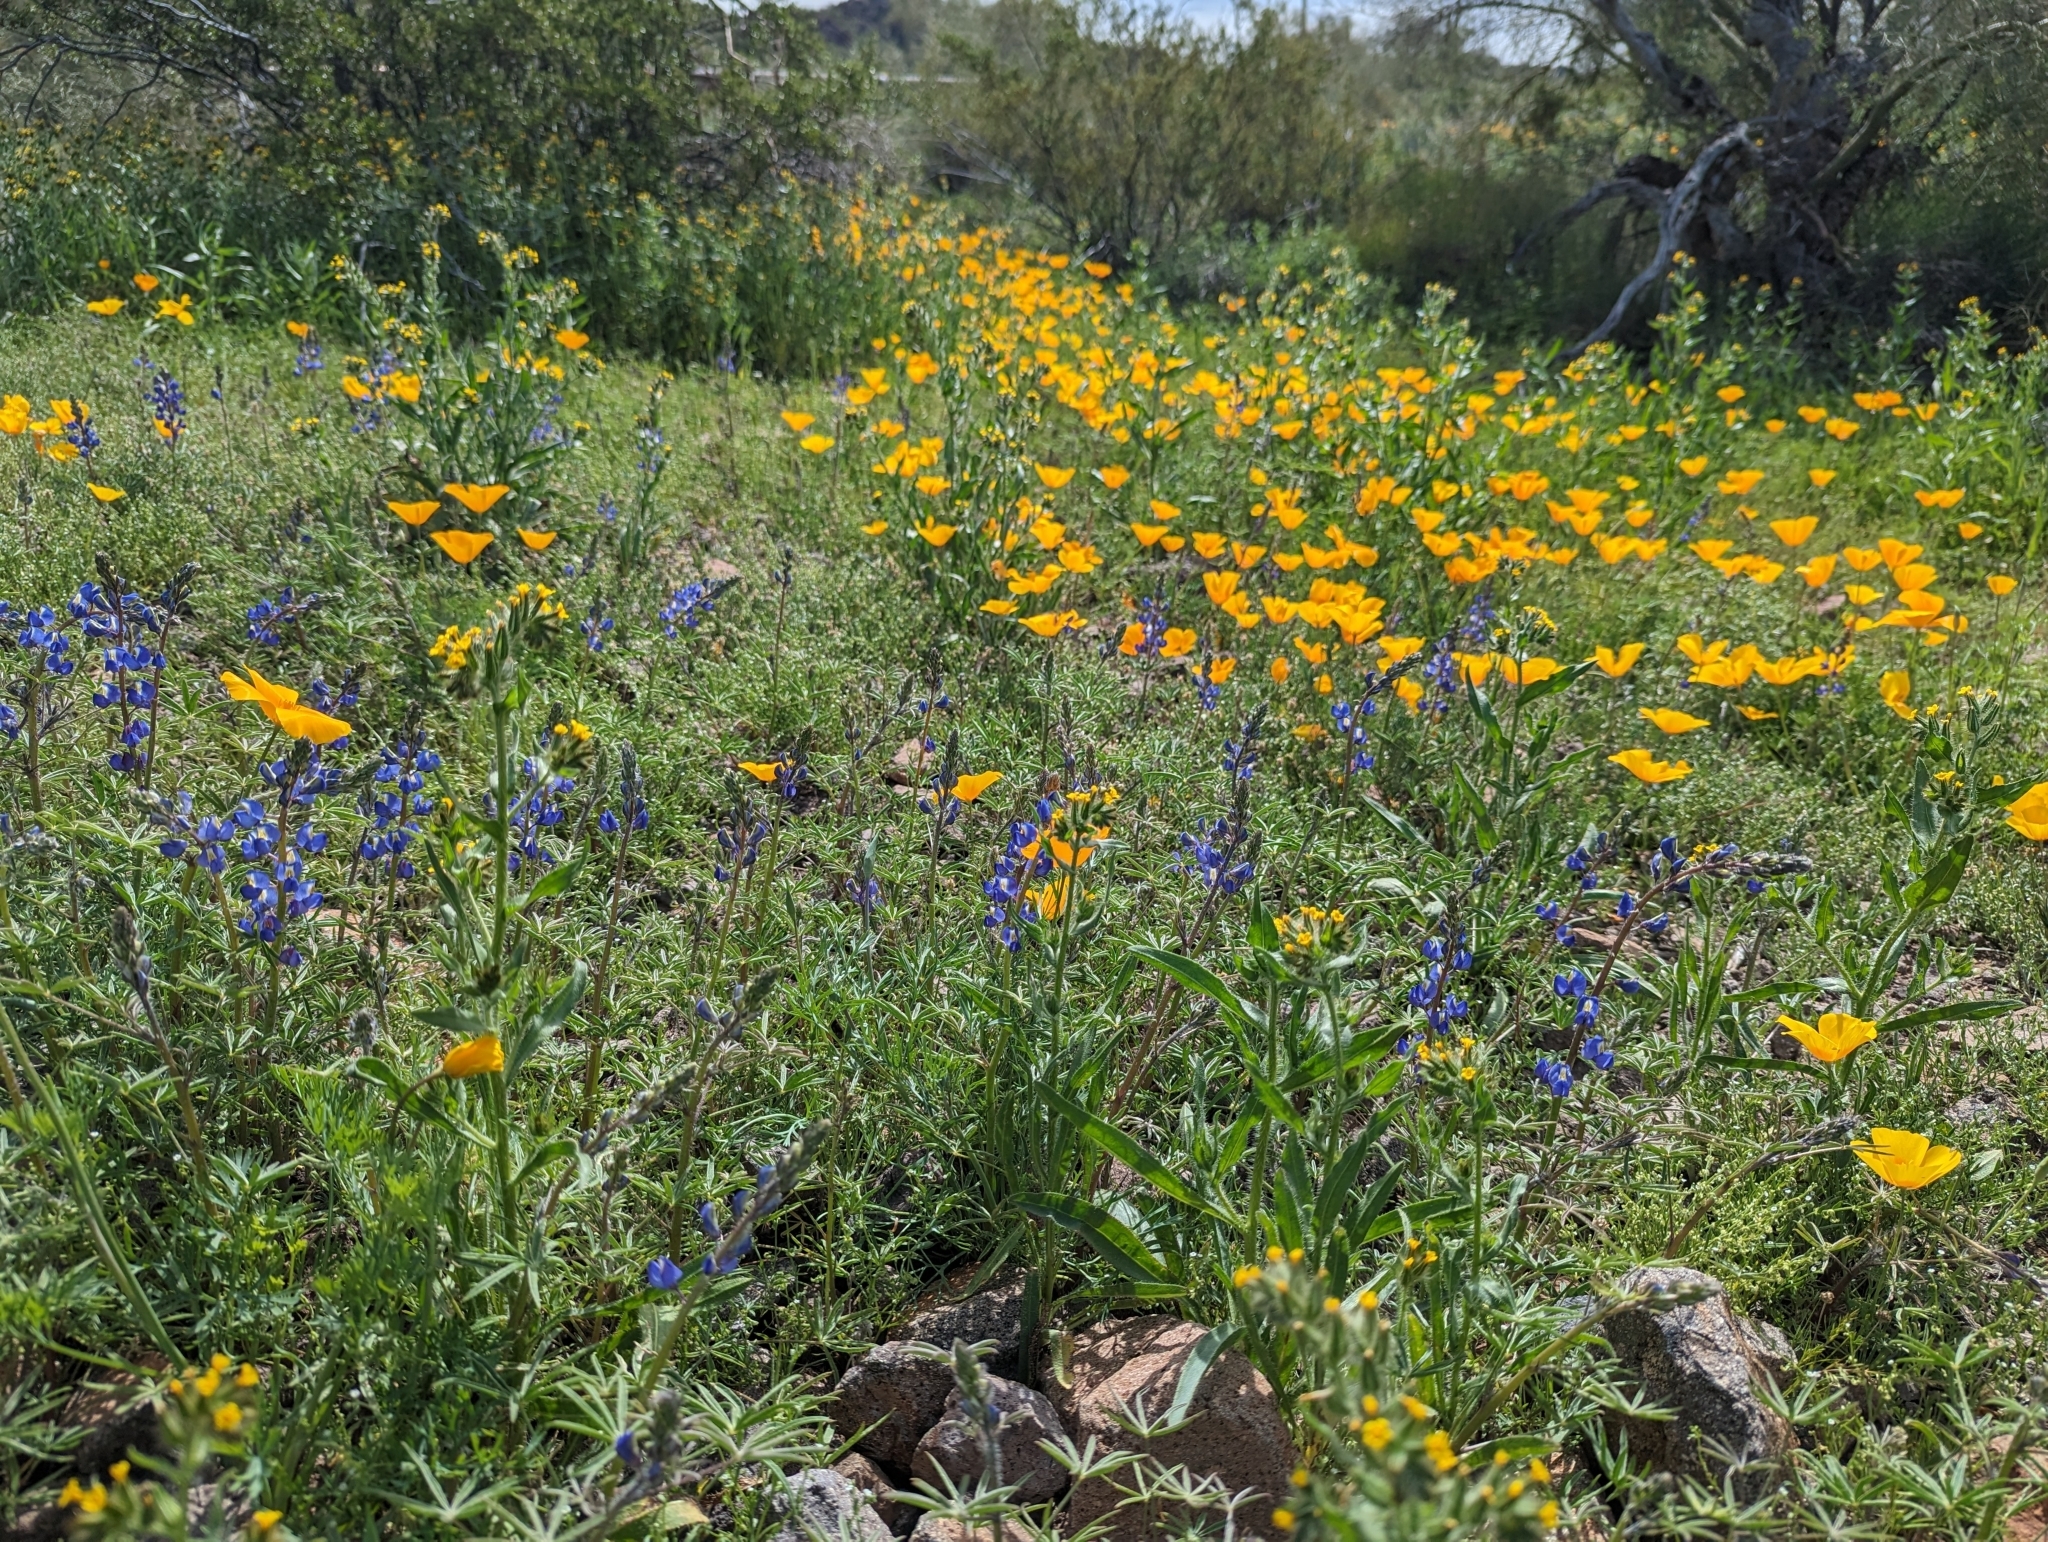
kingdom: Plantae
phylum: Tracheophyta
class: Magnoliopsida
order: Fabales
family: Fabaceae
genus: Lupinus
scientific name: Lupinus sparsiflorus
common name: Coulter's lupine
